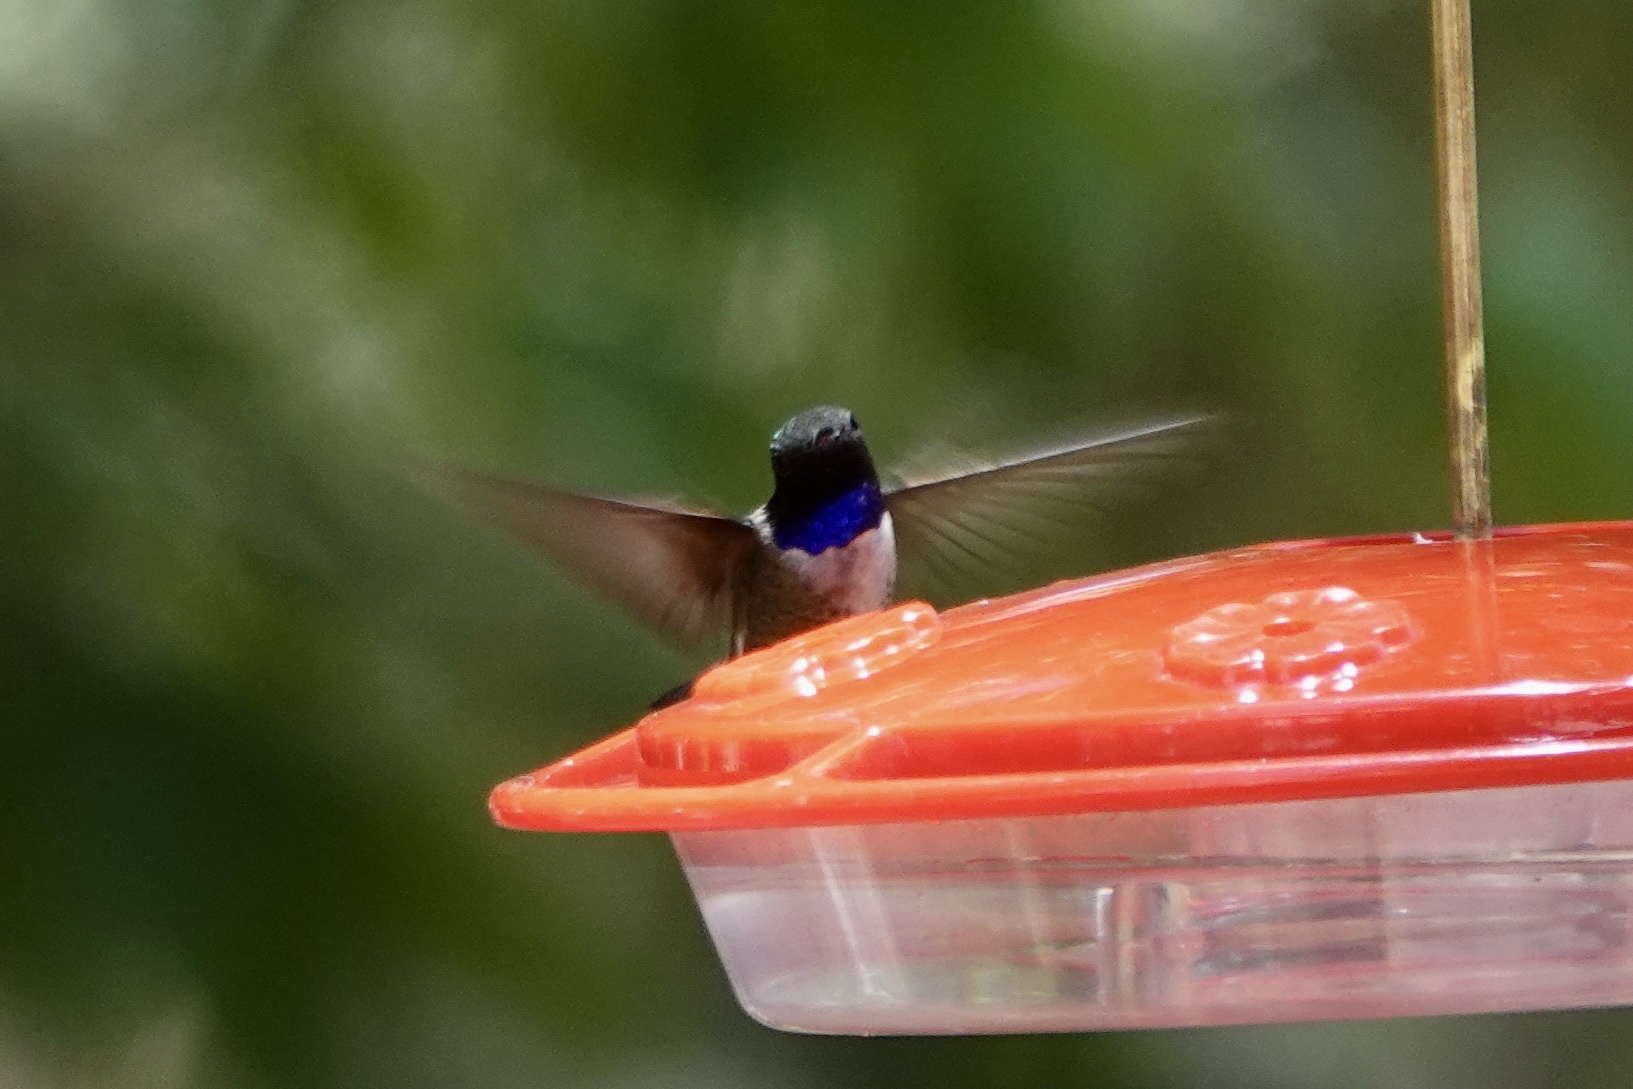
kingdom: Animalia
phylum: Chordata
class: Aves
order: Apodiformes
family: Trochilidae
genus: Archilochus
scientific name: Archilochus alexandri
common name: Black-chinned hummingbird
